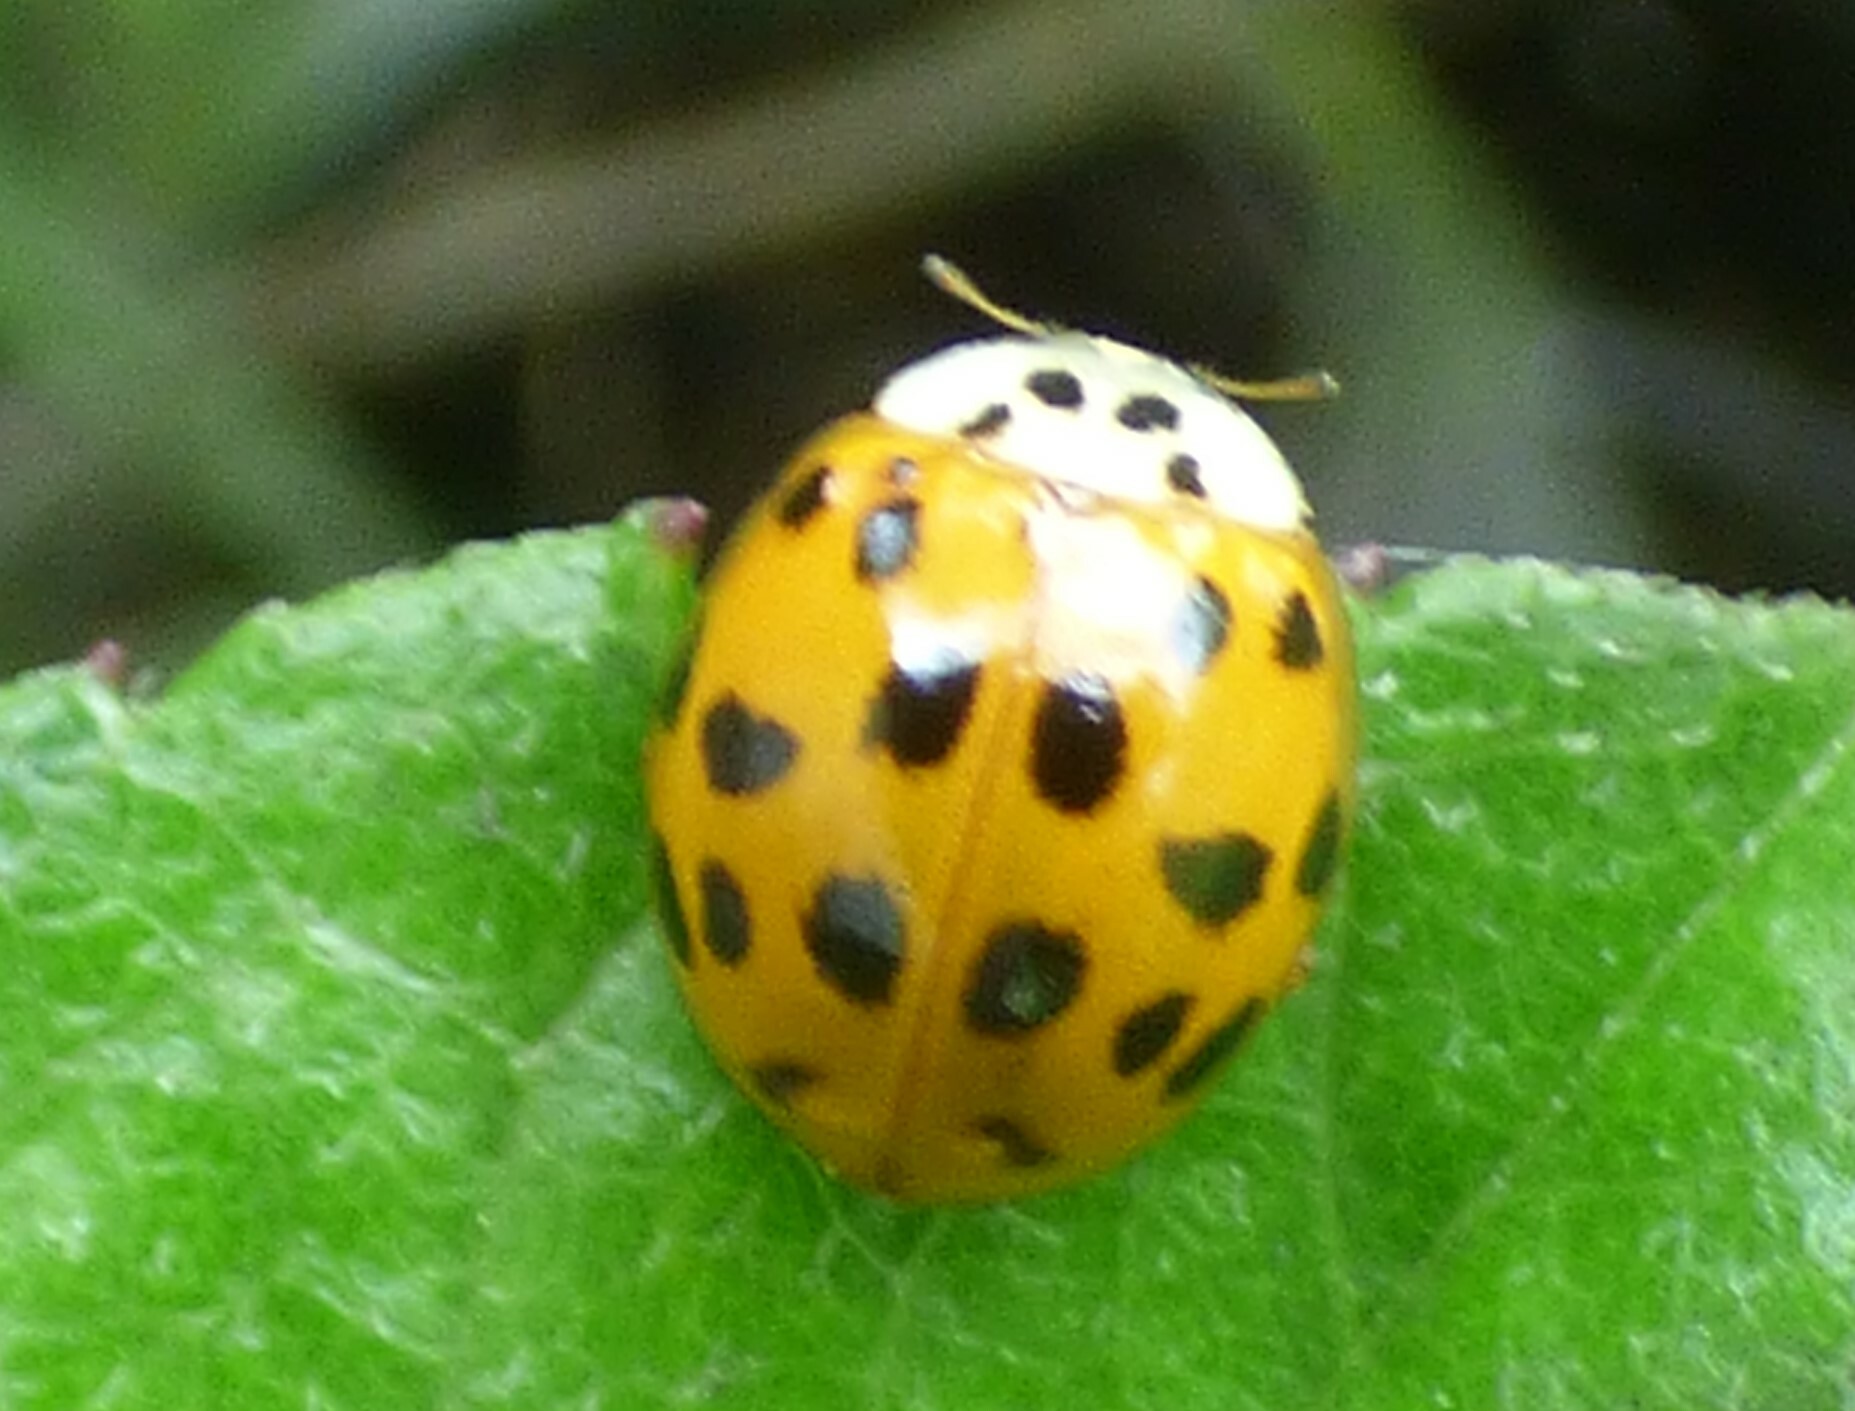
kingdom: Animalia
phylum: Arthropoda
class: Insecta
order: Coleoptera
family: Coccinellidae
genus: Harmonia
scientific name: Harmonia axyridis
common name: Harlequin ladybird
